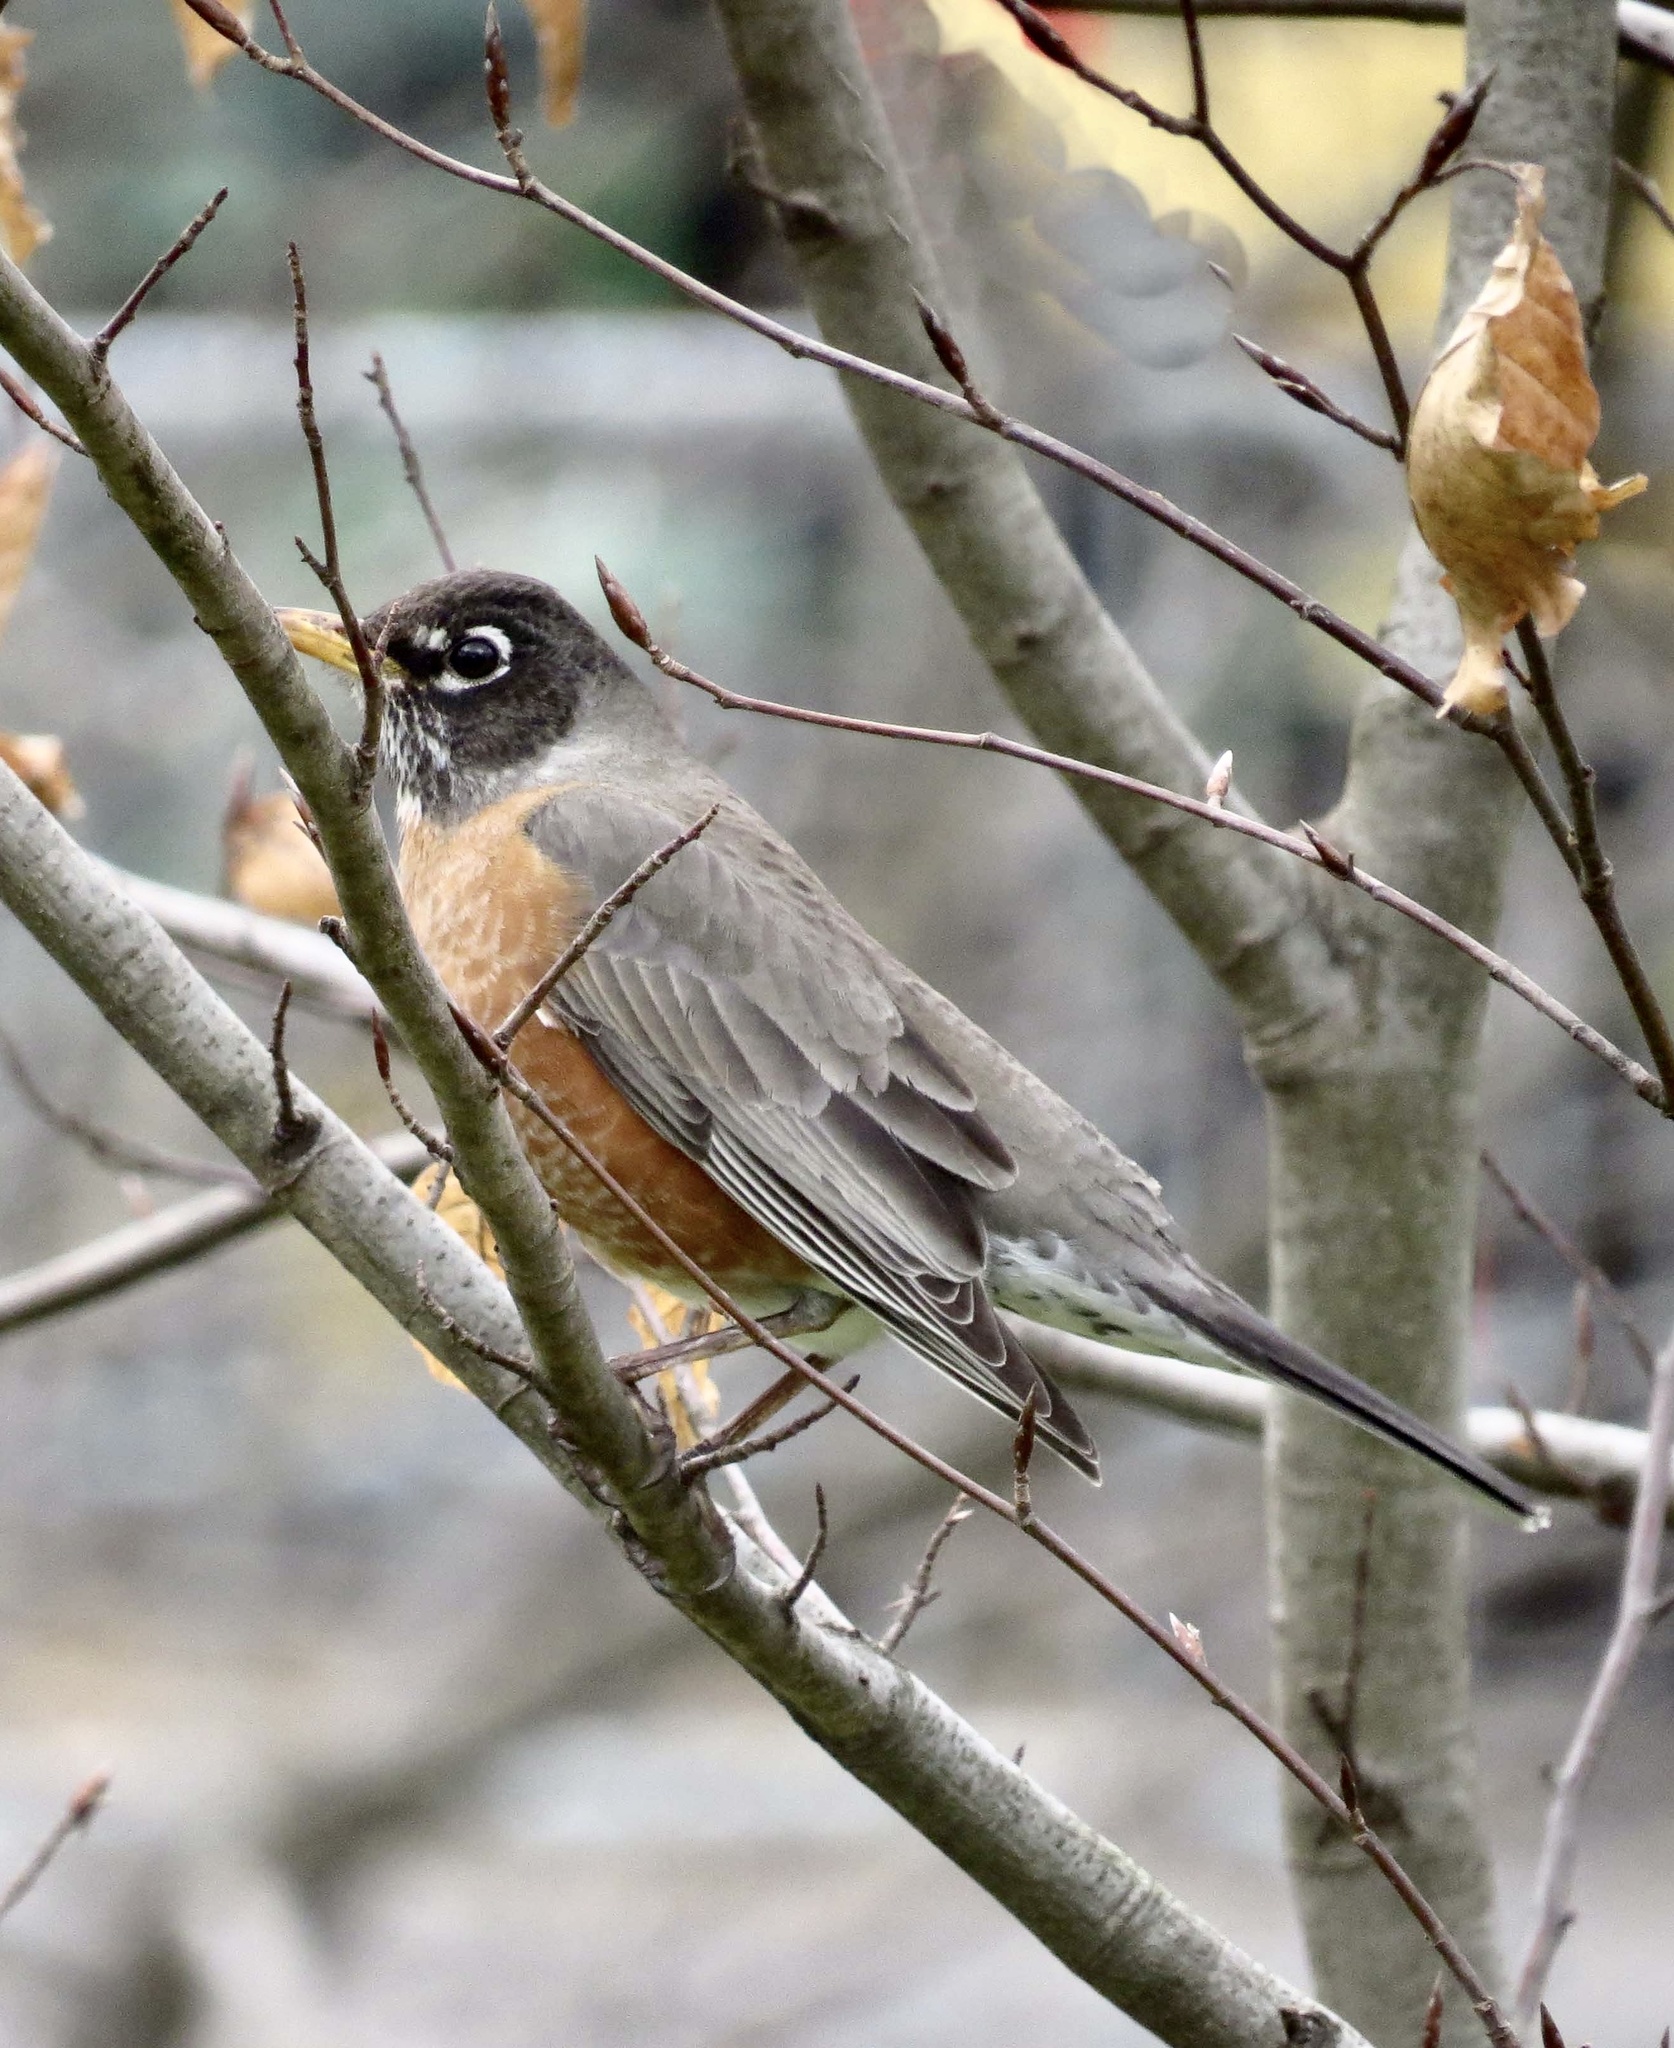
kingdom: Animalia
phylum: Chordata
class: Aves
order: Passeriformes
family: Turdidae
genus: Turdus
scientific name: Turdus migratorius
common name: American robin
